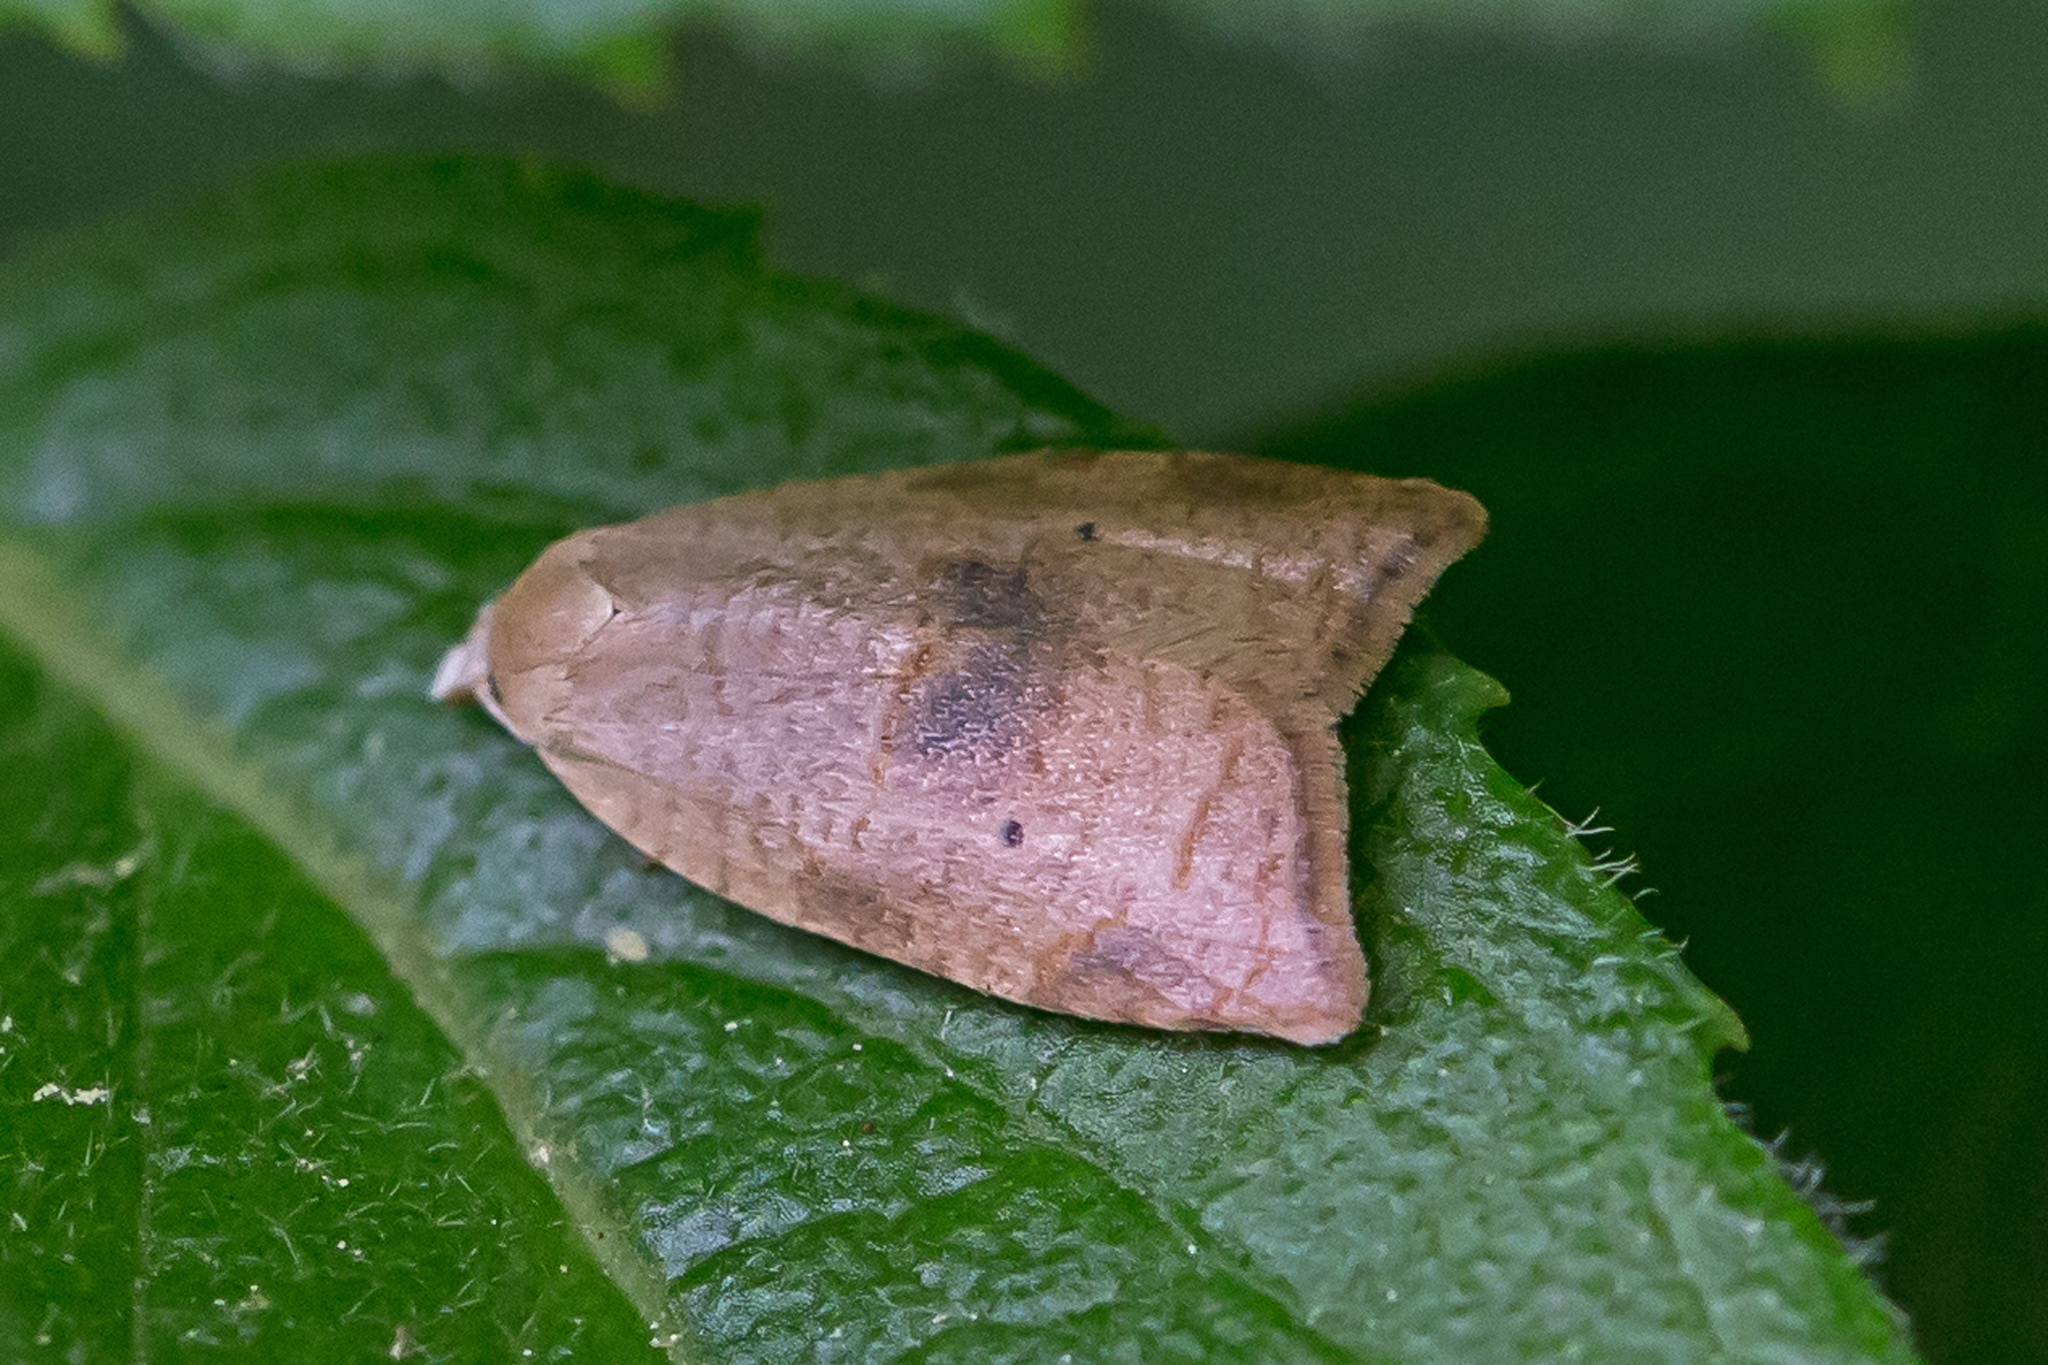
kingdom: Animalia
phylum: Arthropoda
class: Insecta
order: Lepidoptera
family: Tortricidae
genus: Coelostathma
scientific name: Coelostathma discopunctana
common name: Batman moth
